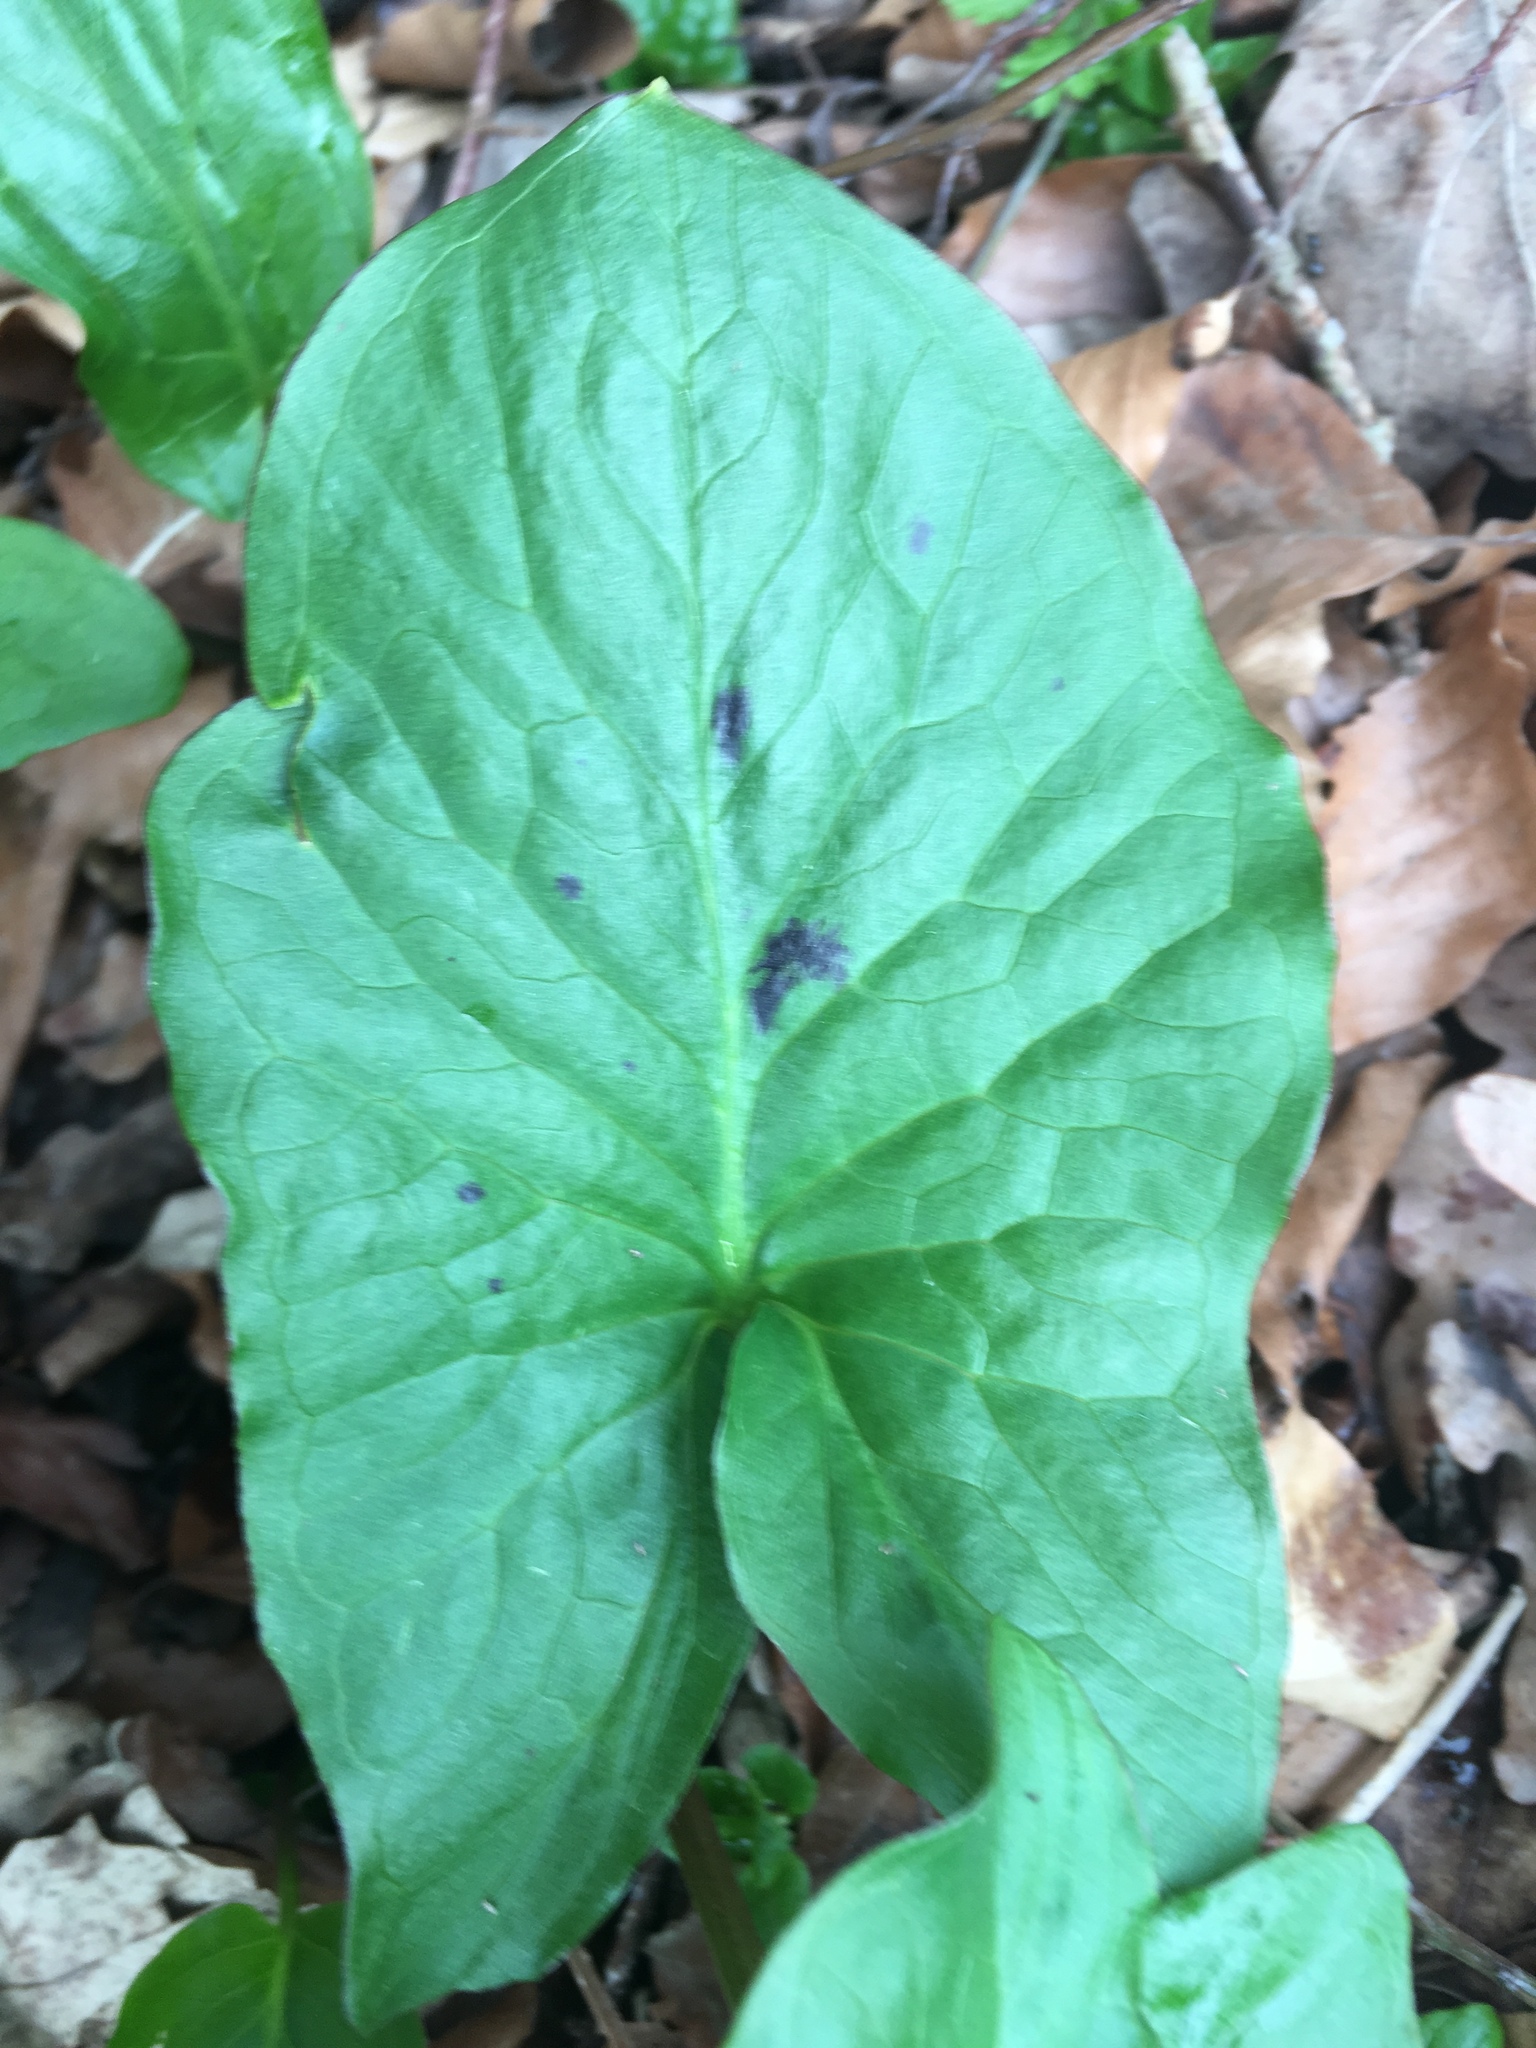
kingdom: Plantae
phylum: Tracheophyta
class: Liliopsida
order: Alismatales
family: Araceae
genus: Arum
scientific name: Arum maculatum
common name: Lords-and-ladies
